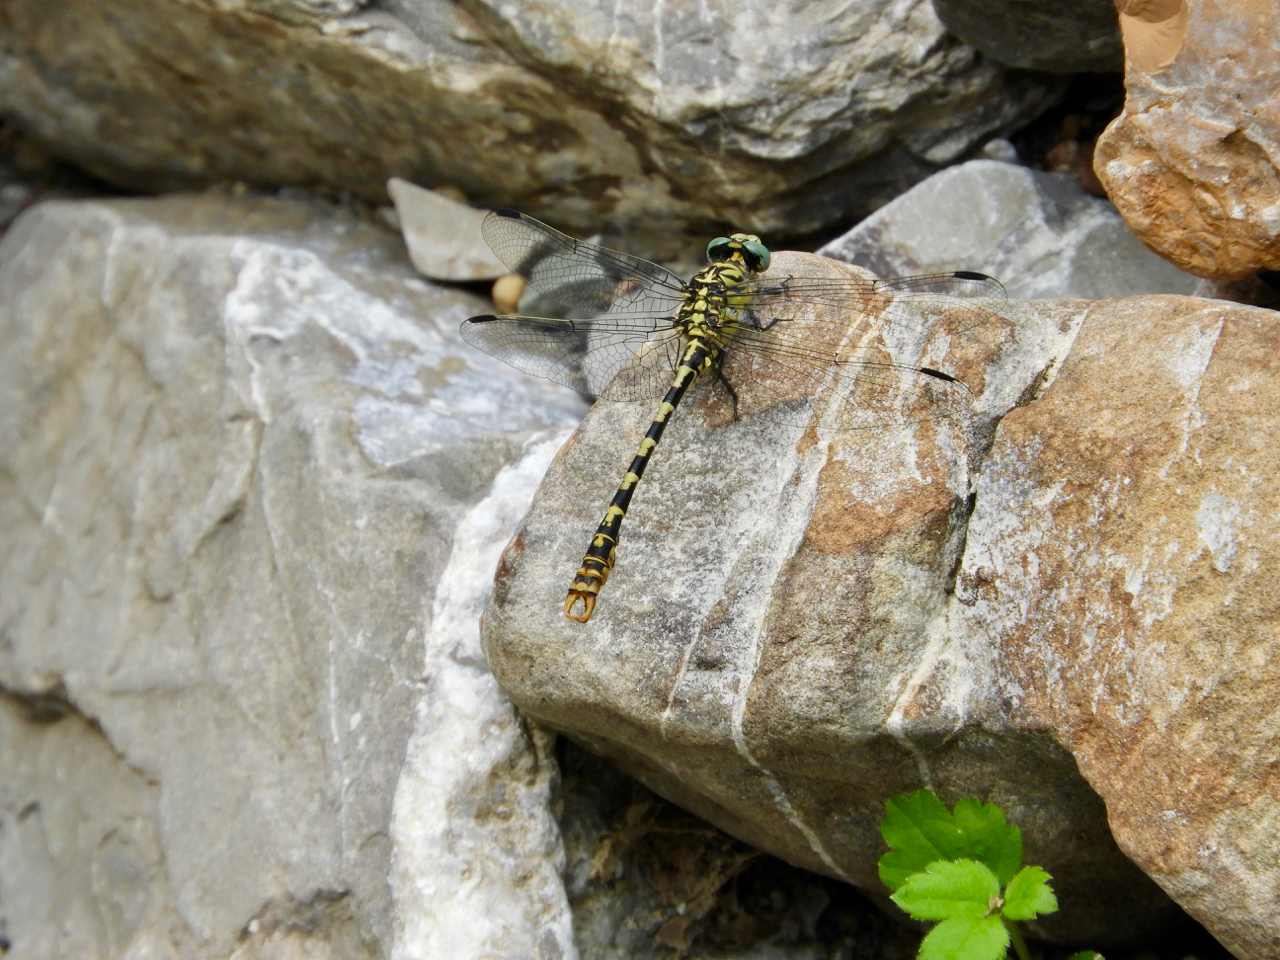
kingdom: Animalia
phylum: Arthropoda
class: Insecta
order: Odonata
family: Gomphidae
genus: Onychogomphus
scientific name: Onychogomphus forcipatus
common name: Small pincertail
